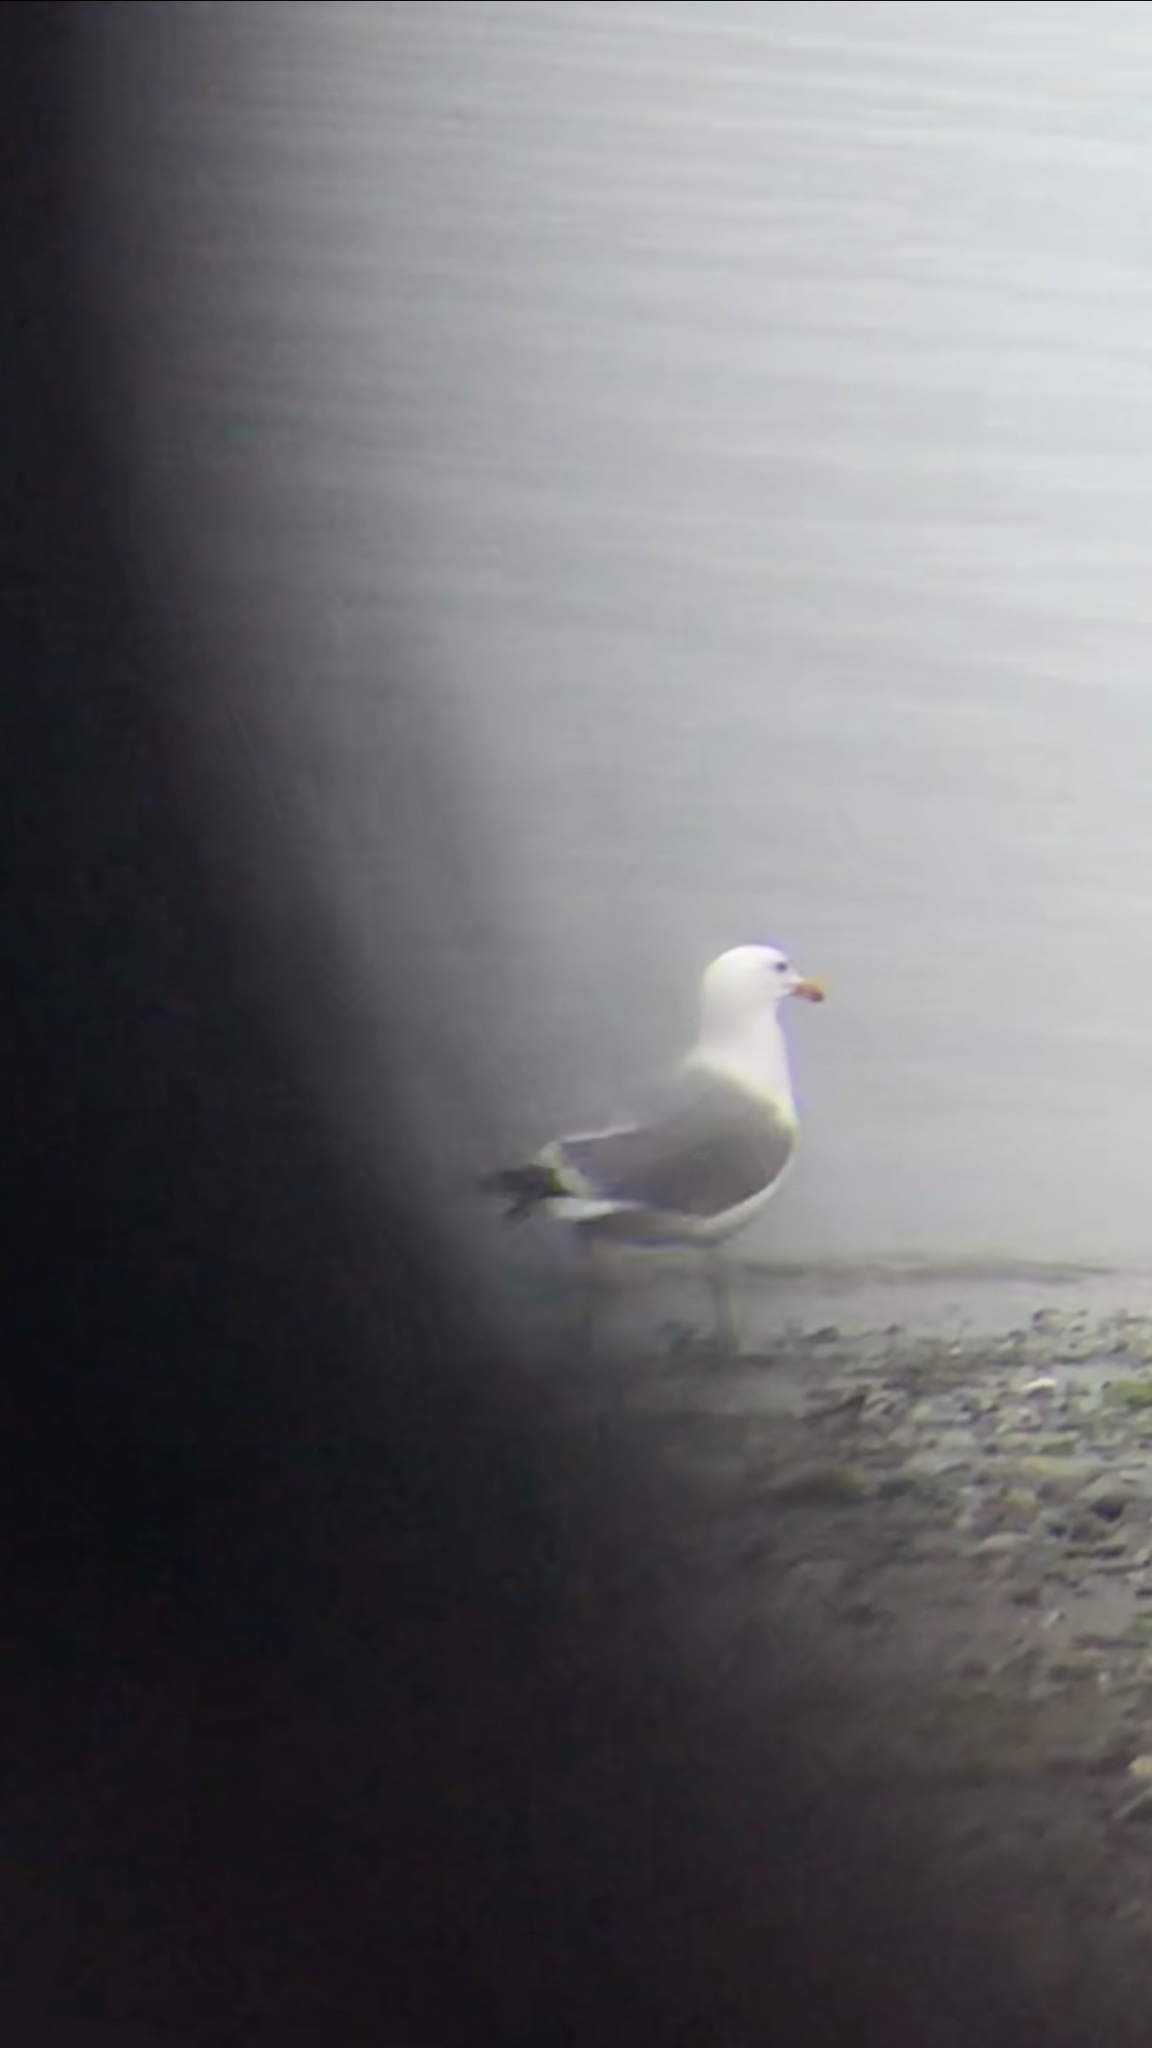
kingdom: Animalia
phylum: Chordata
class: Aves
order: Charadriiformes
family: Laridae
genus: Larus
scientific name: Larus californicus
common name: California gull
